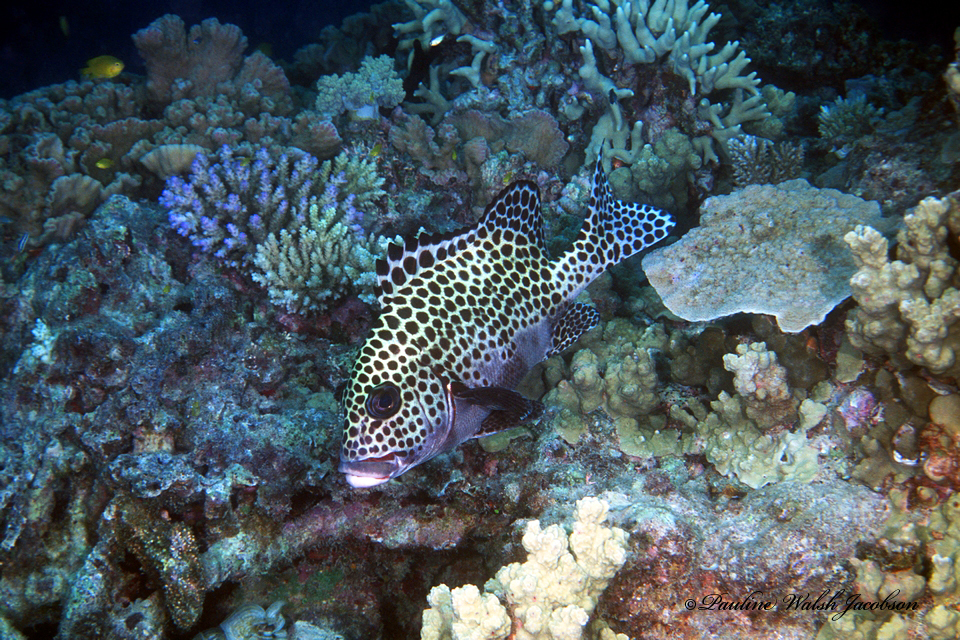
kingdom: Animalia
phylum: Chordata
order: Perciformes
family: Haemulidae
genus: Plectorhinchus
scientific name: Plectorhinchus chaetodonoides
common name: Harlequin sweetlips
